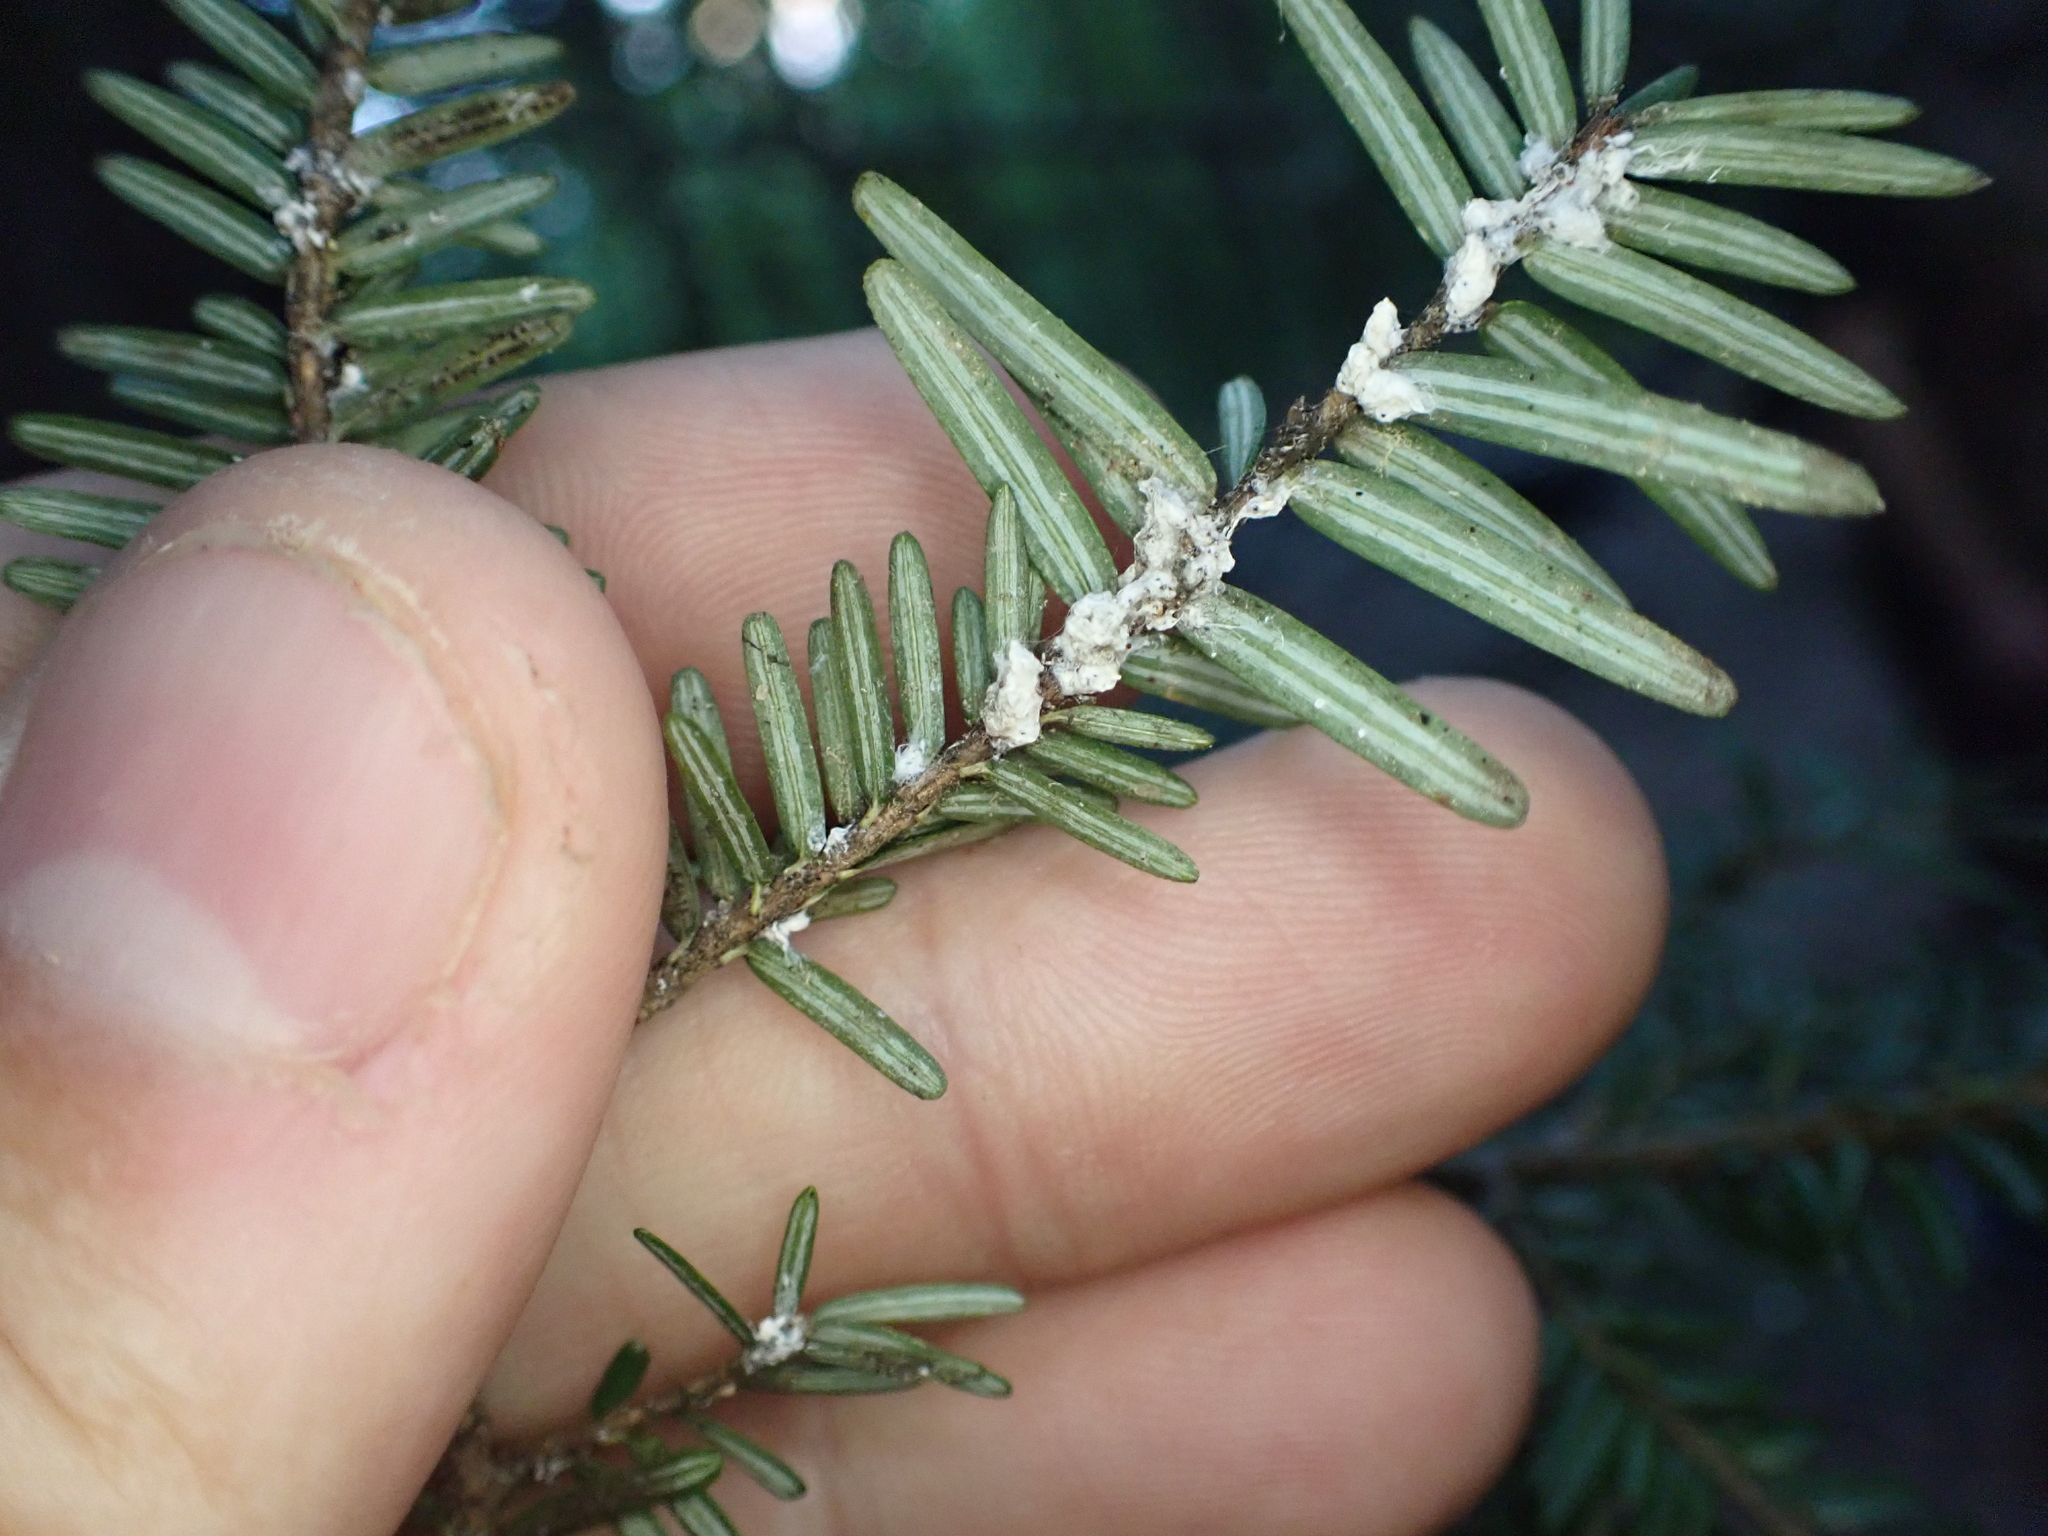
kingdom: Animalia
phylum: Arthropoda
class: Insecta
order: Hemiptera
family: Adelgidae
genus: Adelges
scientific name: Adelges tsugae
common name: Hemlock woolly adelgid
